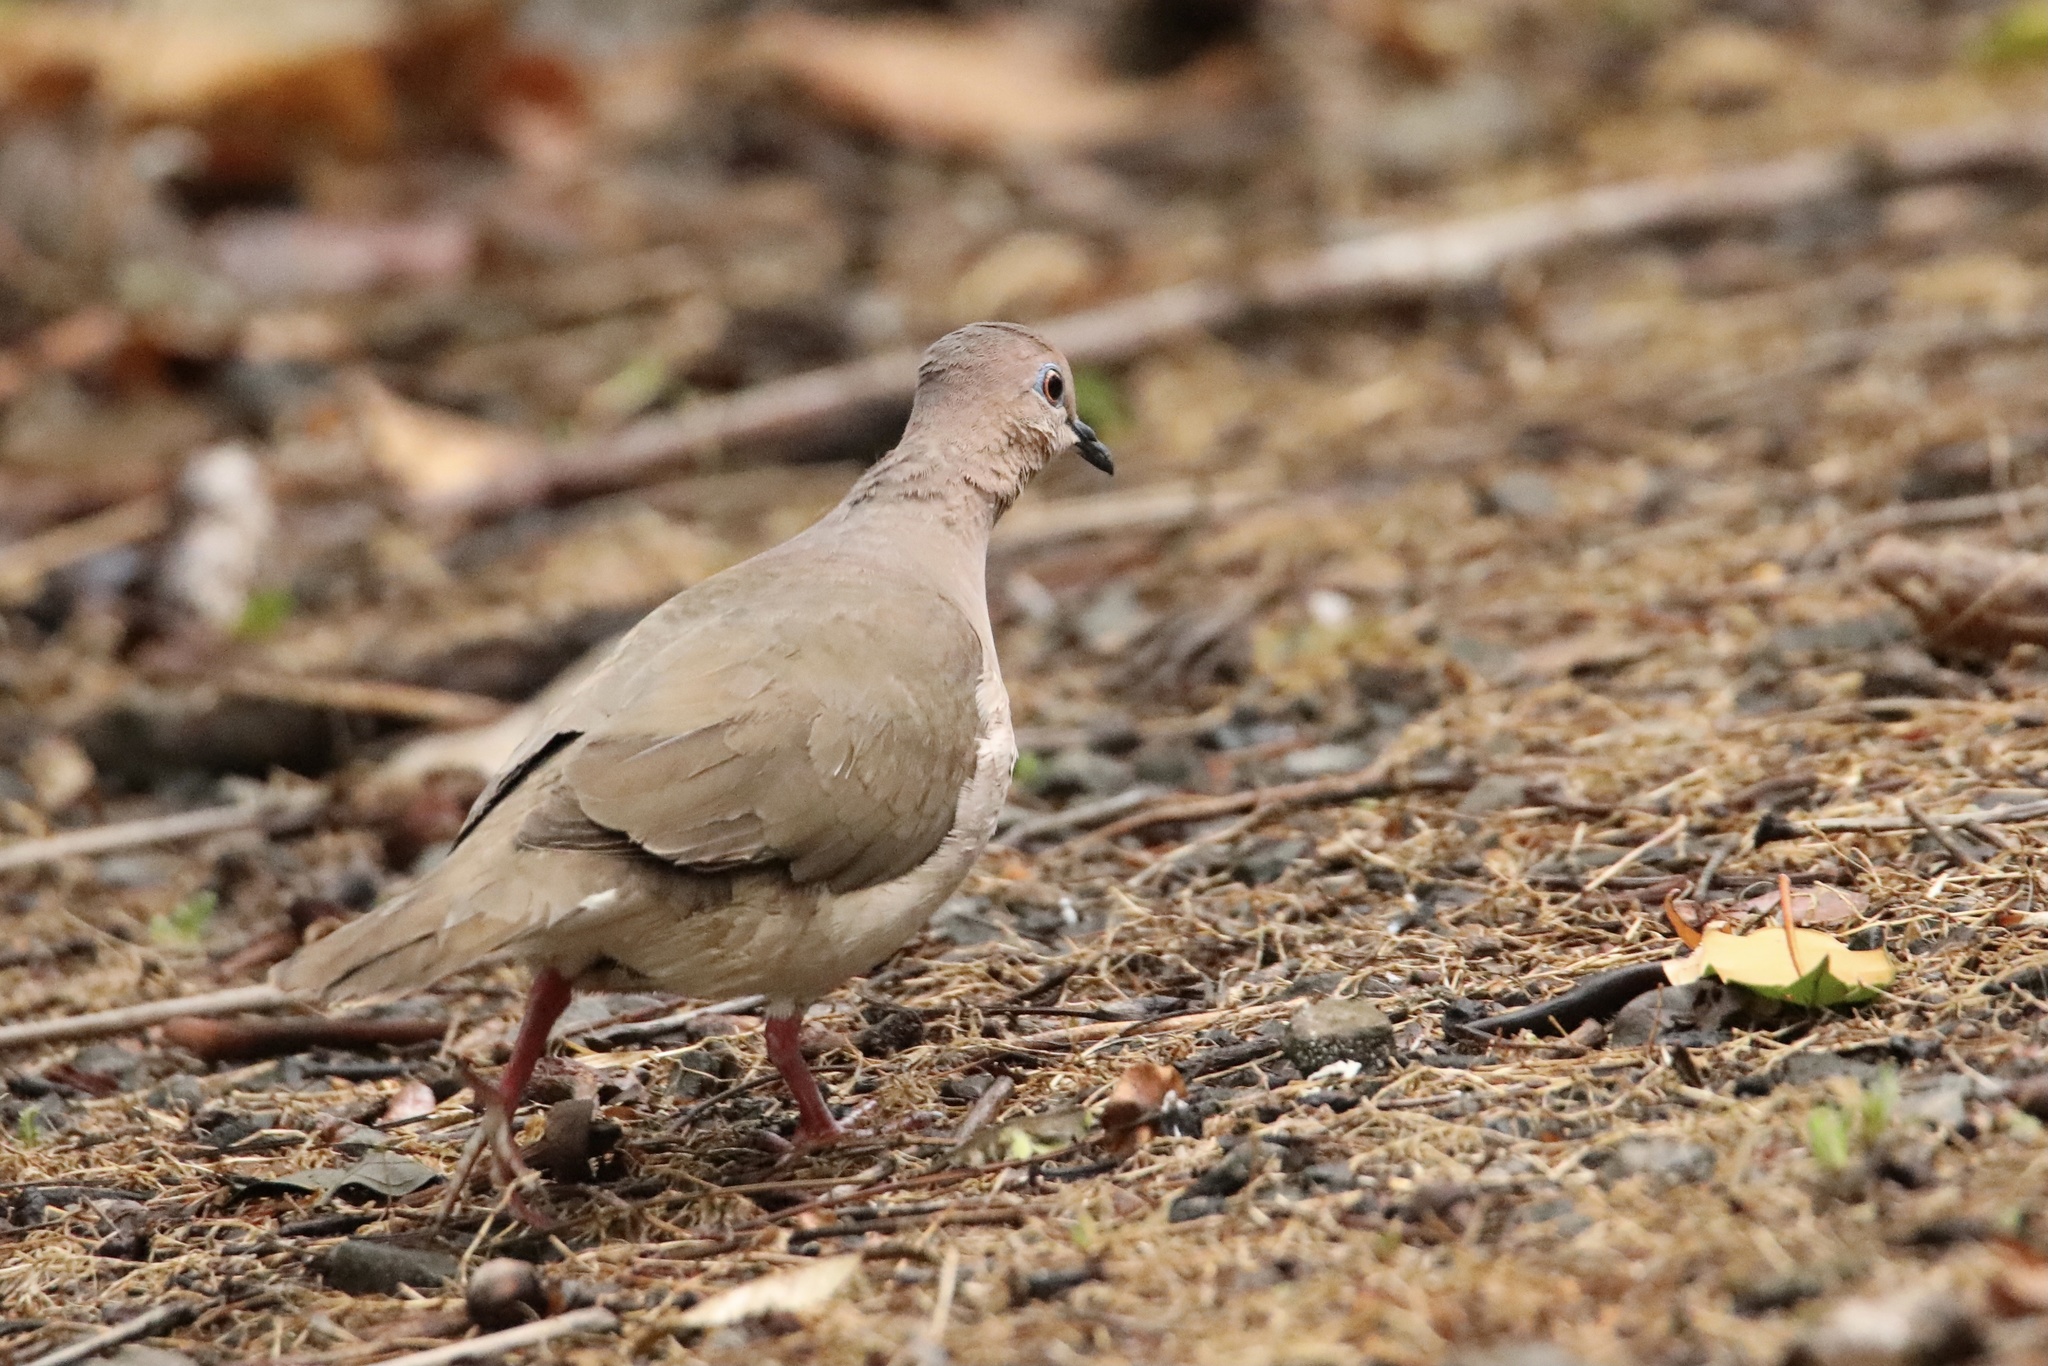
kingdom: Animalia
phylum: Chordata
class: Aves
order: Columbiformes
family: Columbidae
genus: Leptotila
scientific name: Leptotila verreauxi
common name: White-tipped dove
